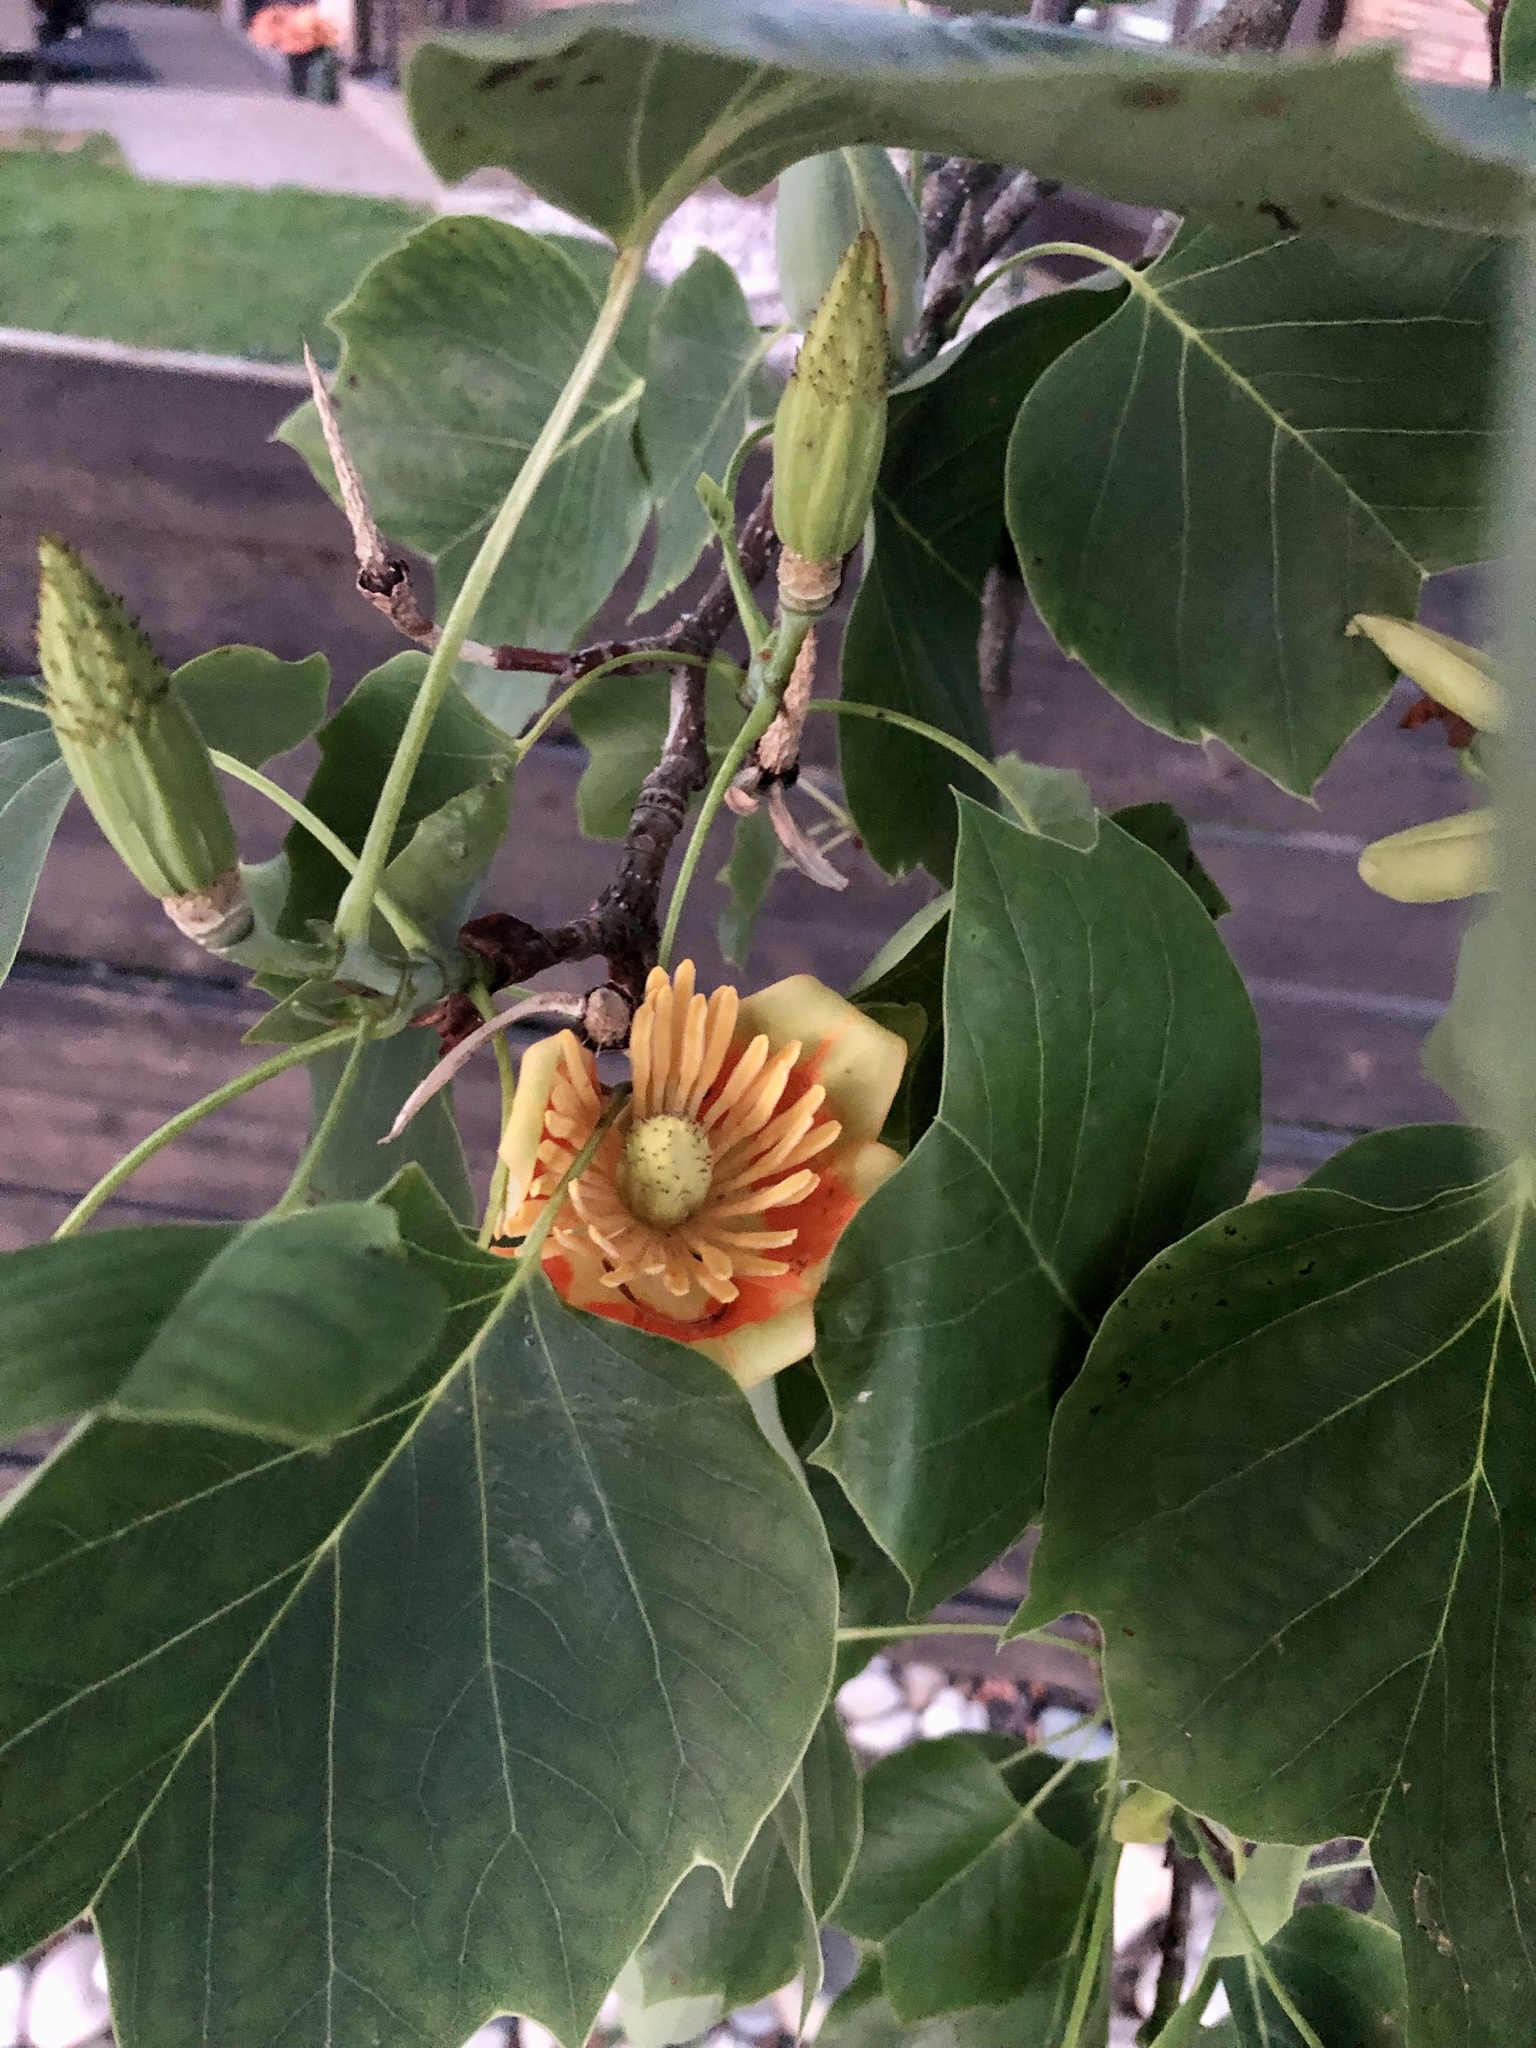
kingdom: Plantae
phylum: Tracheophyta
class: Magnoliopsida
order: Magnoliales
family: Magnoliaceae
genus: Liriodendron
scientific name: Liriodendron tulipifera
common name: Tulip tree
